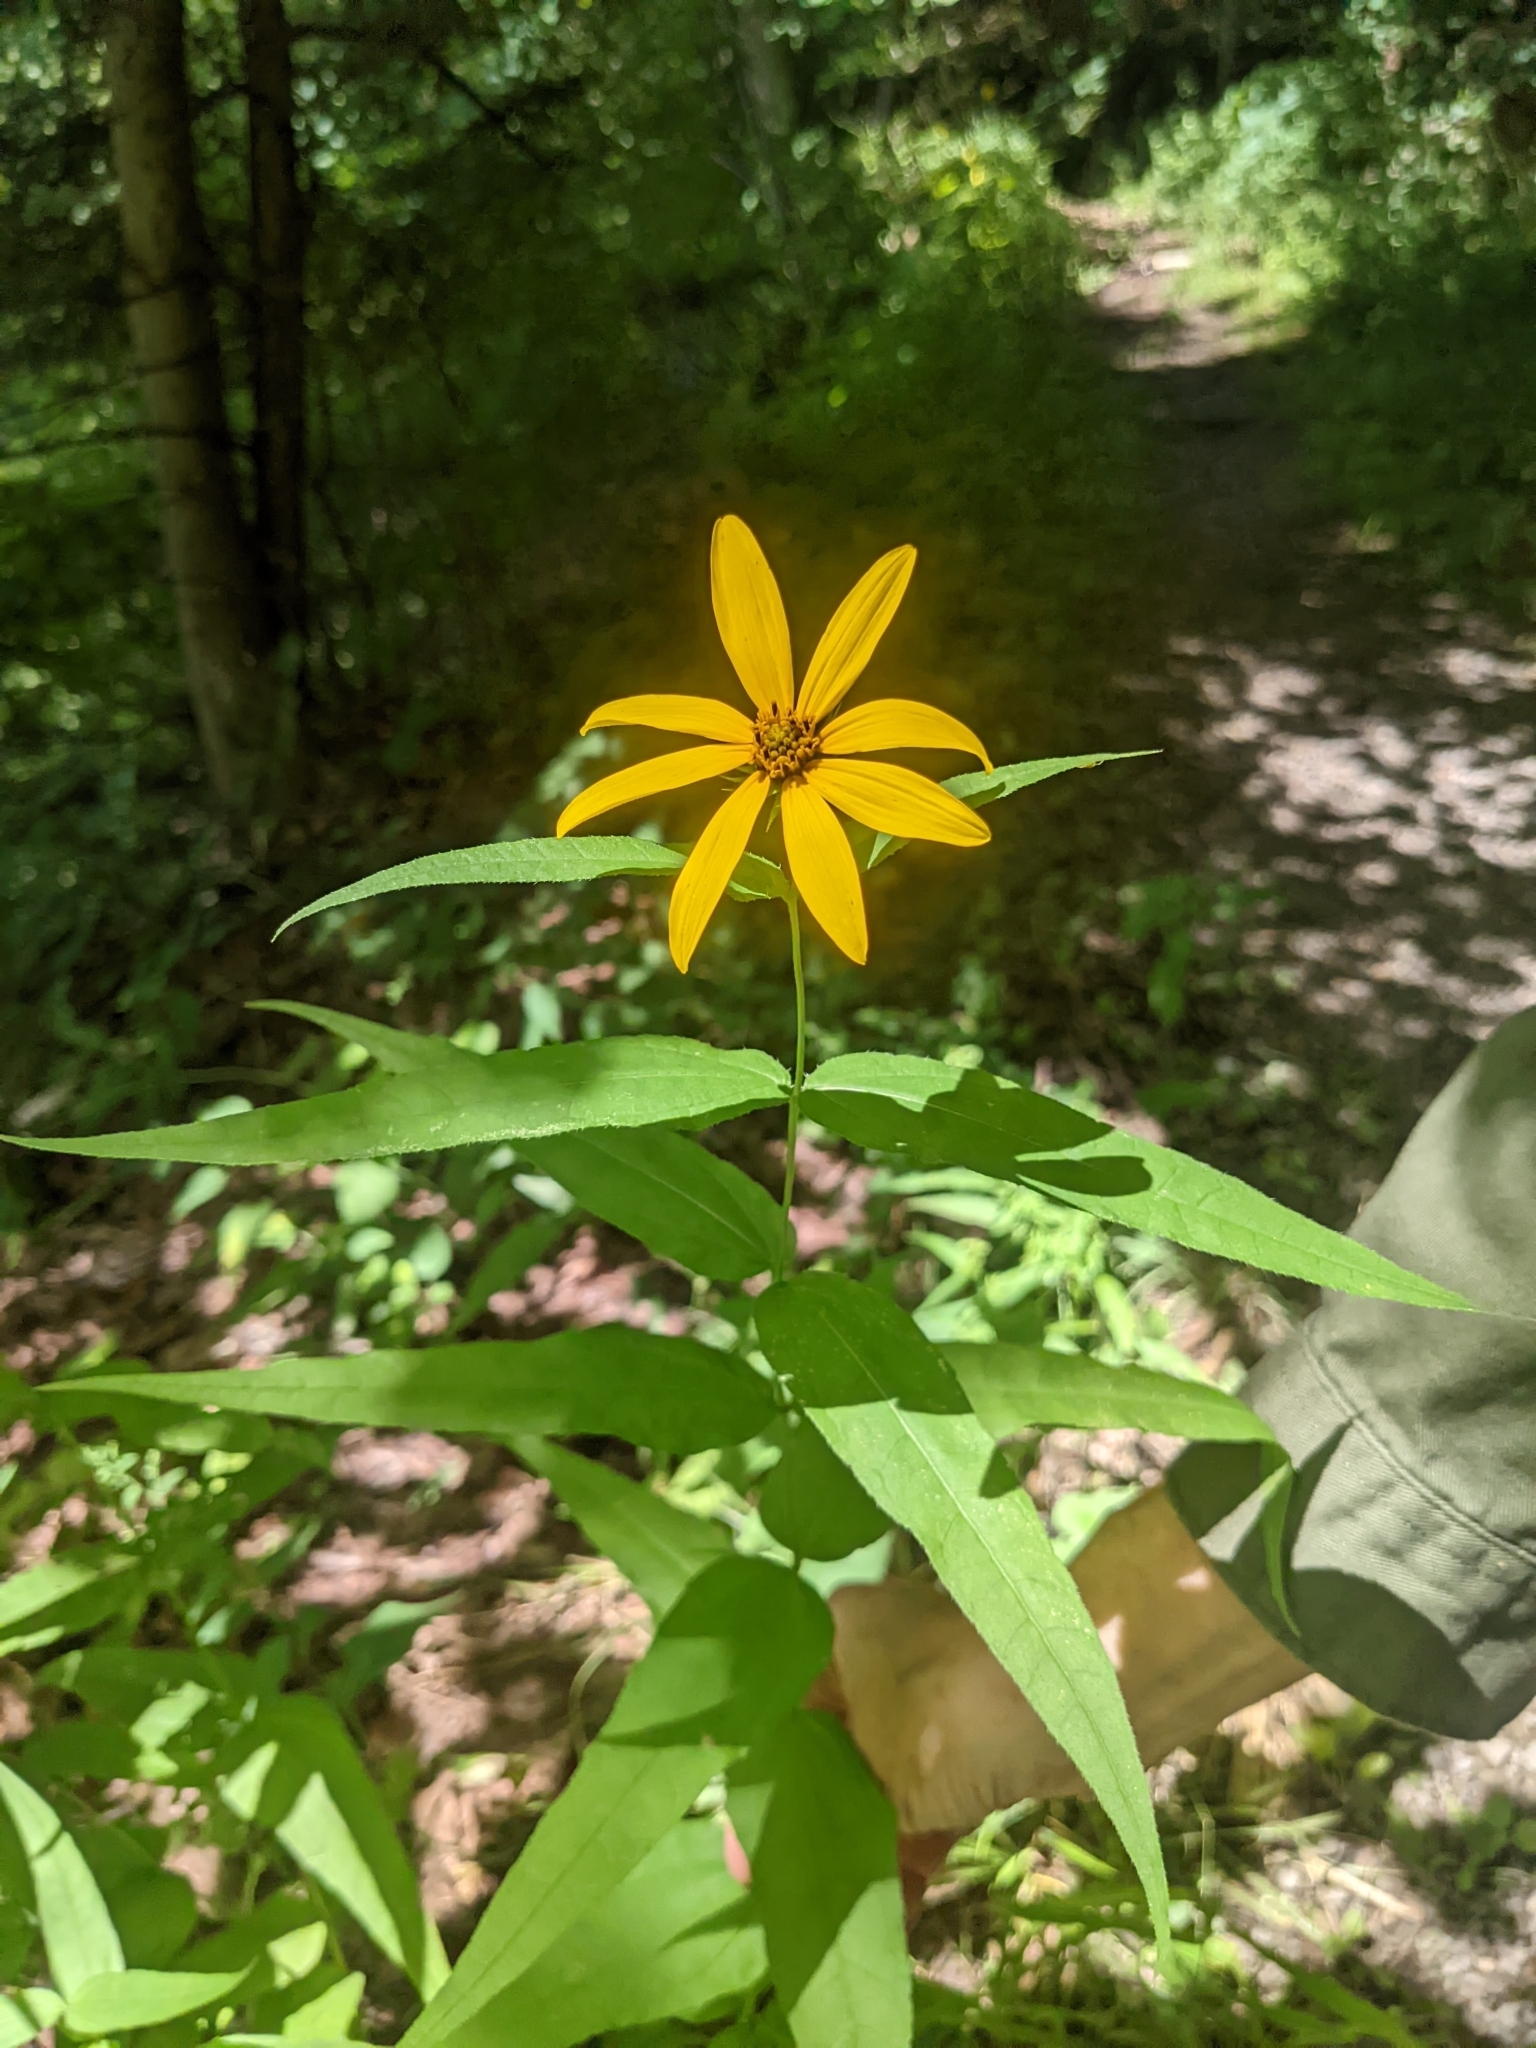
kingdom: Plantae
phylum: Tracheophyta
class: Magnoliopsida
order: Asterales
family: Asteraceae
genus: Helianthus
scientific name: Helianthus divaricatus
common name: Divergent sunflower
